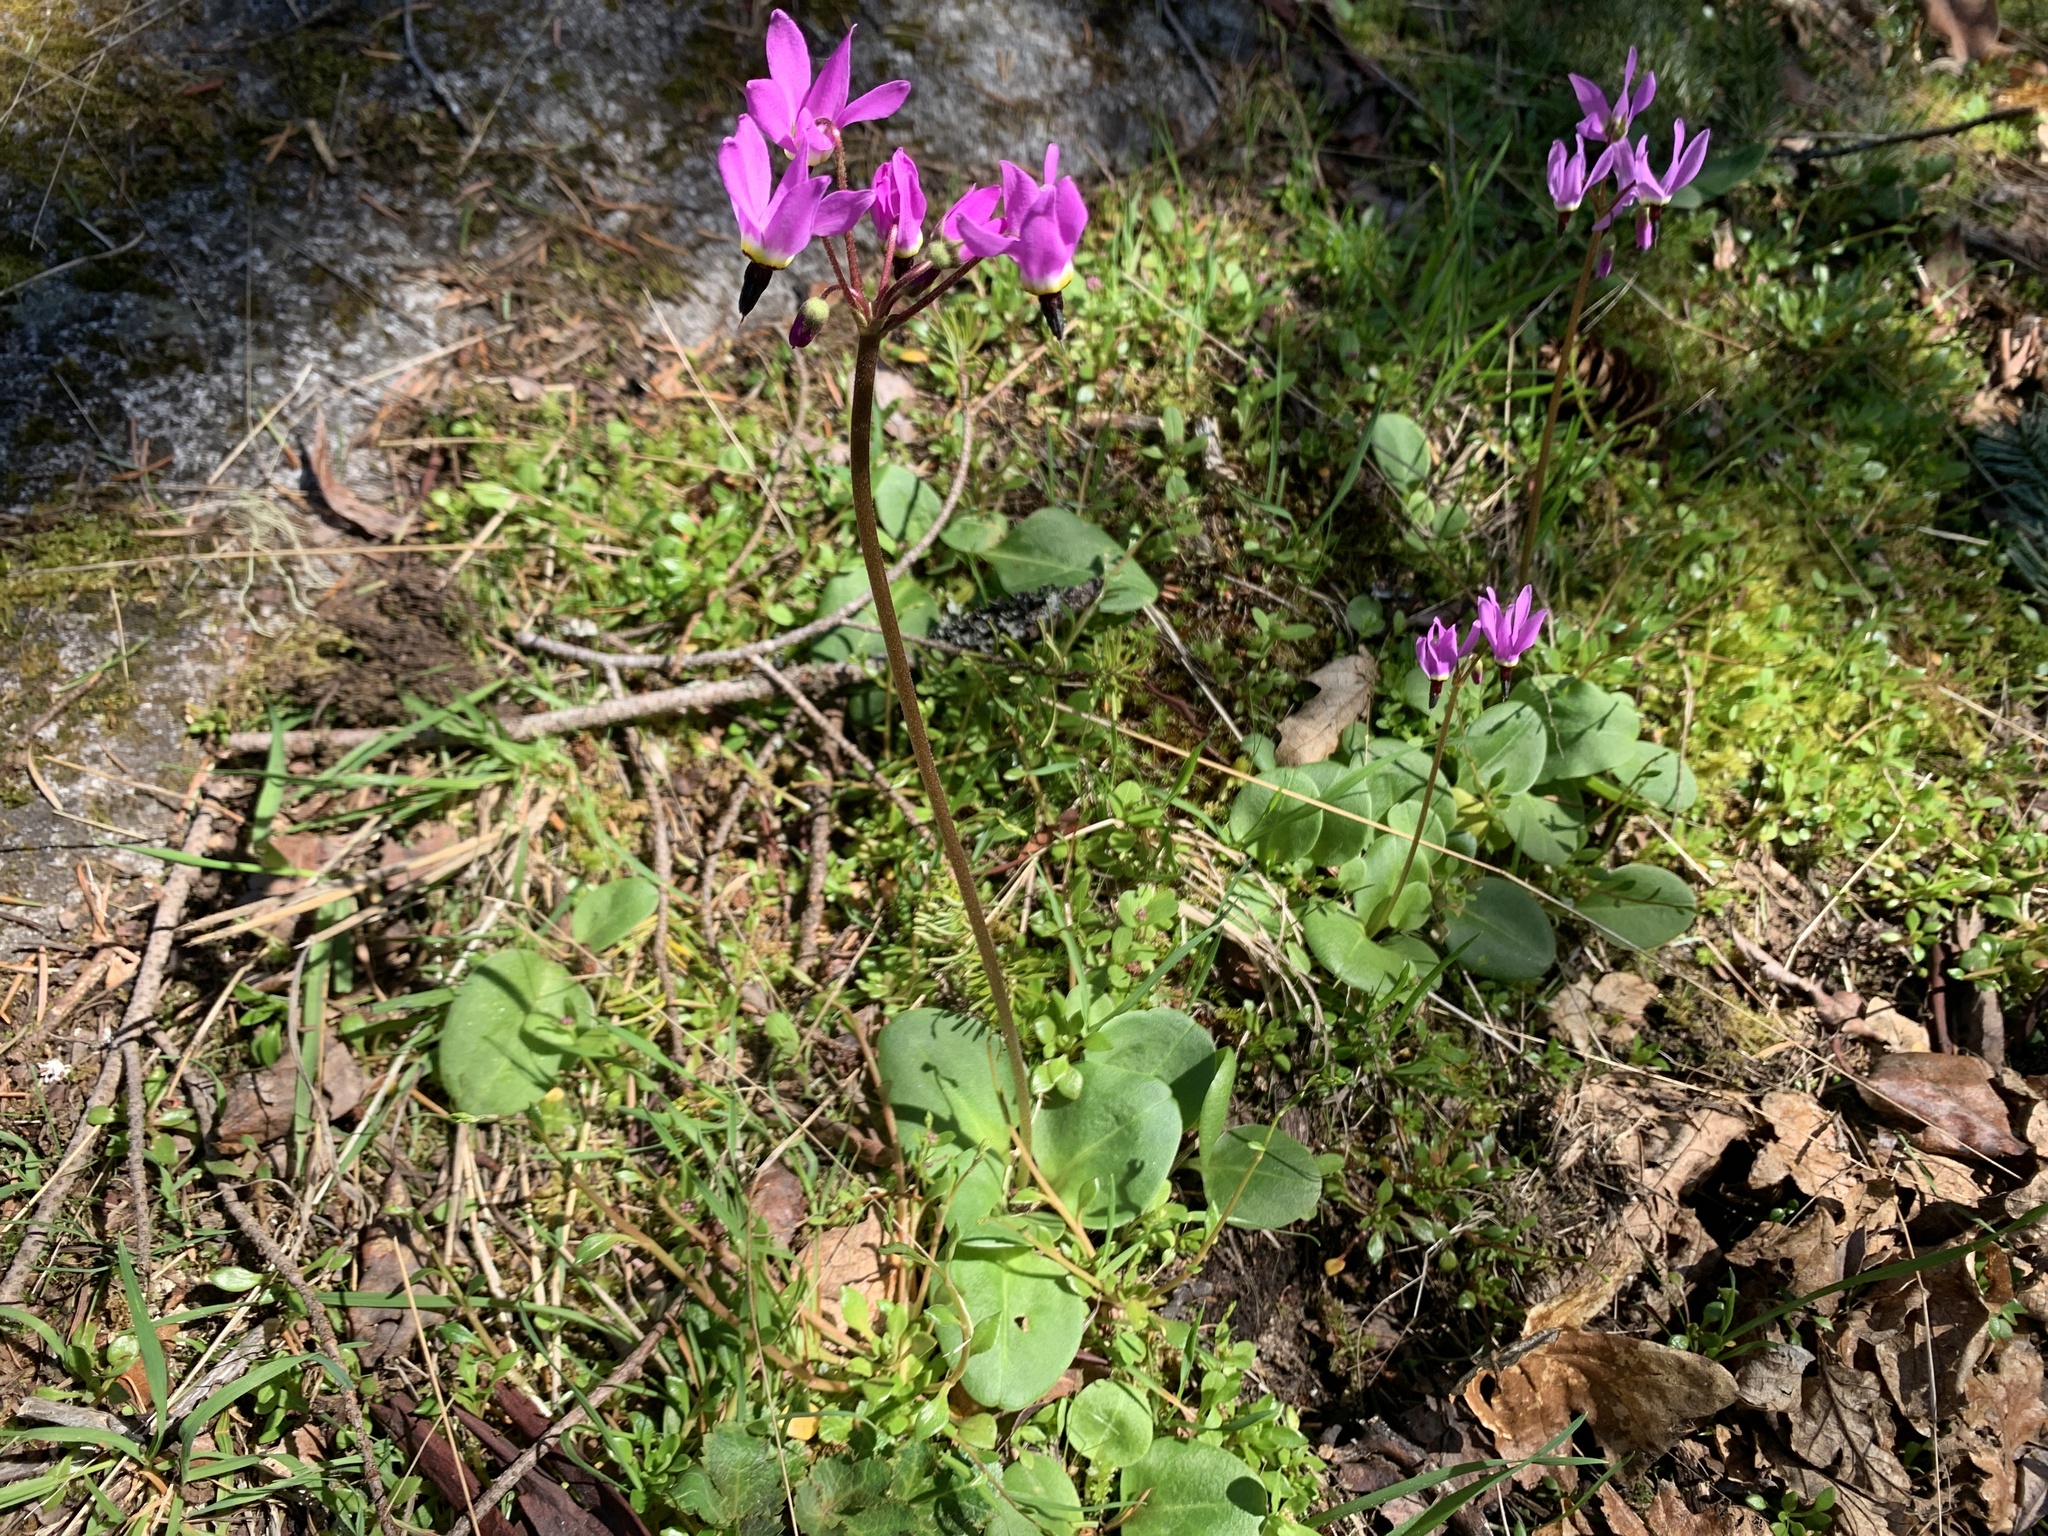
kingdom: Plantae
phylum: Tracheophyta
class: Magnoliopsida
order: Ericales
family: Primulaceae
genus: Dodecatheon
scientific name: Dodecatheon hendersonii
